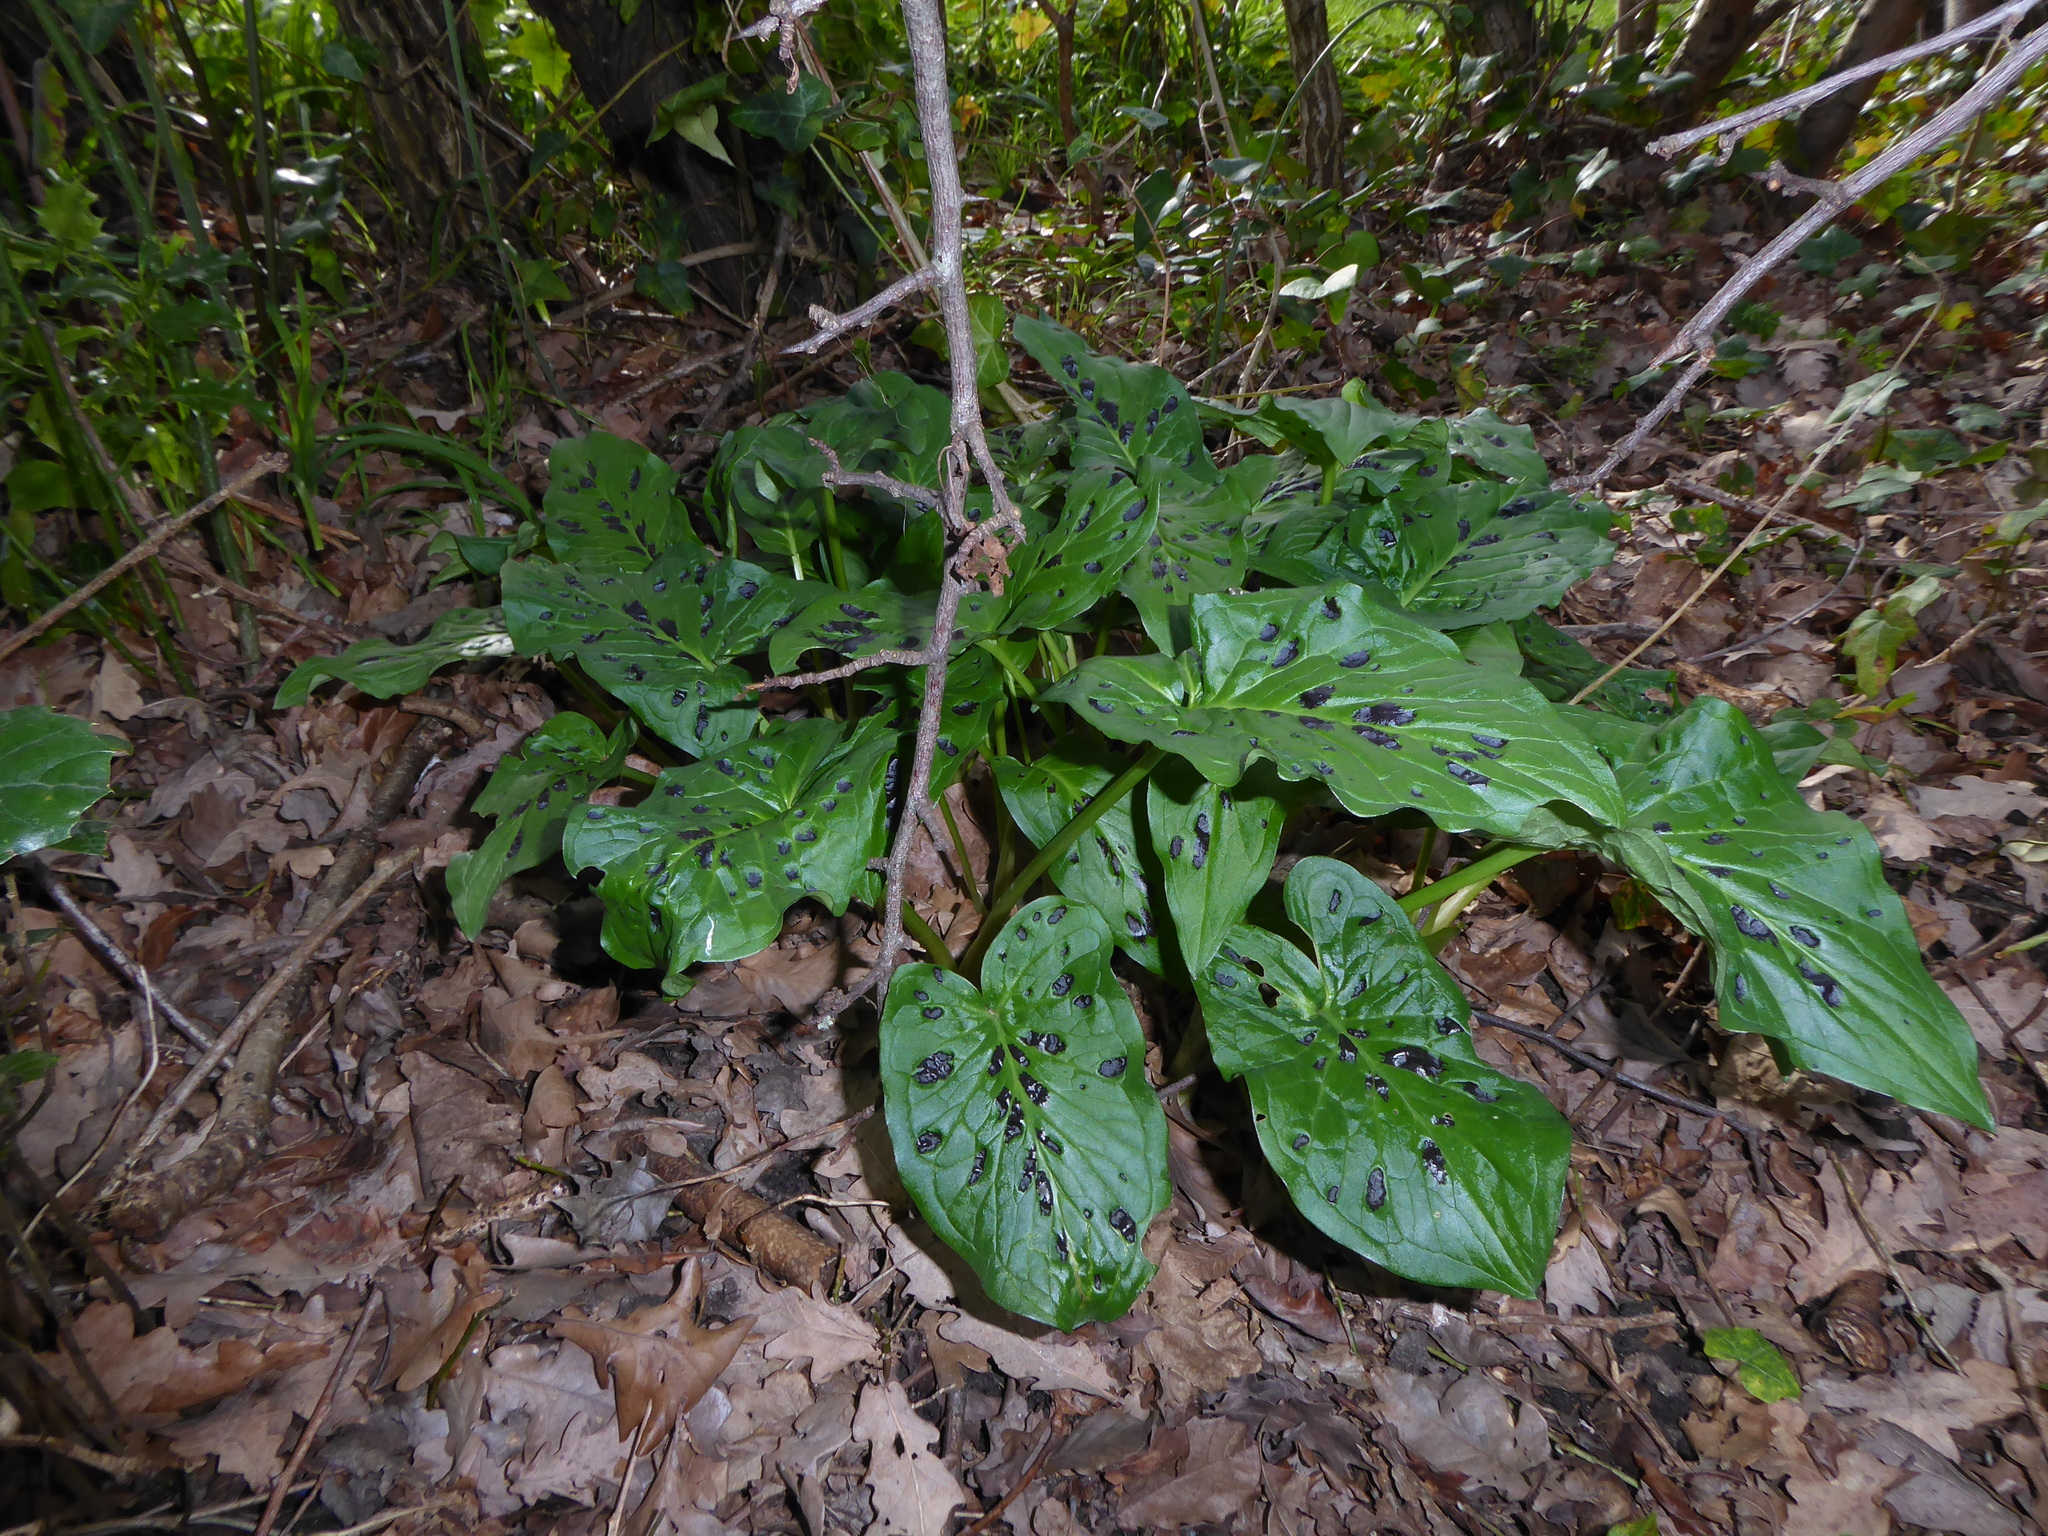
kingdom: Plantae
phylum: Tracheophyta
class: Liliopsida
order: Alismatales
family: Araceae
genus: Arum
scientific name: Arum maculatum
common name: Lords-and-ladies
